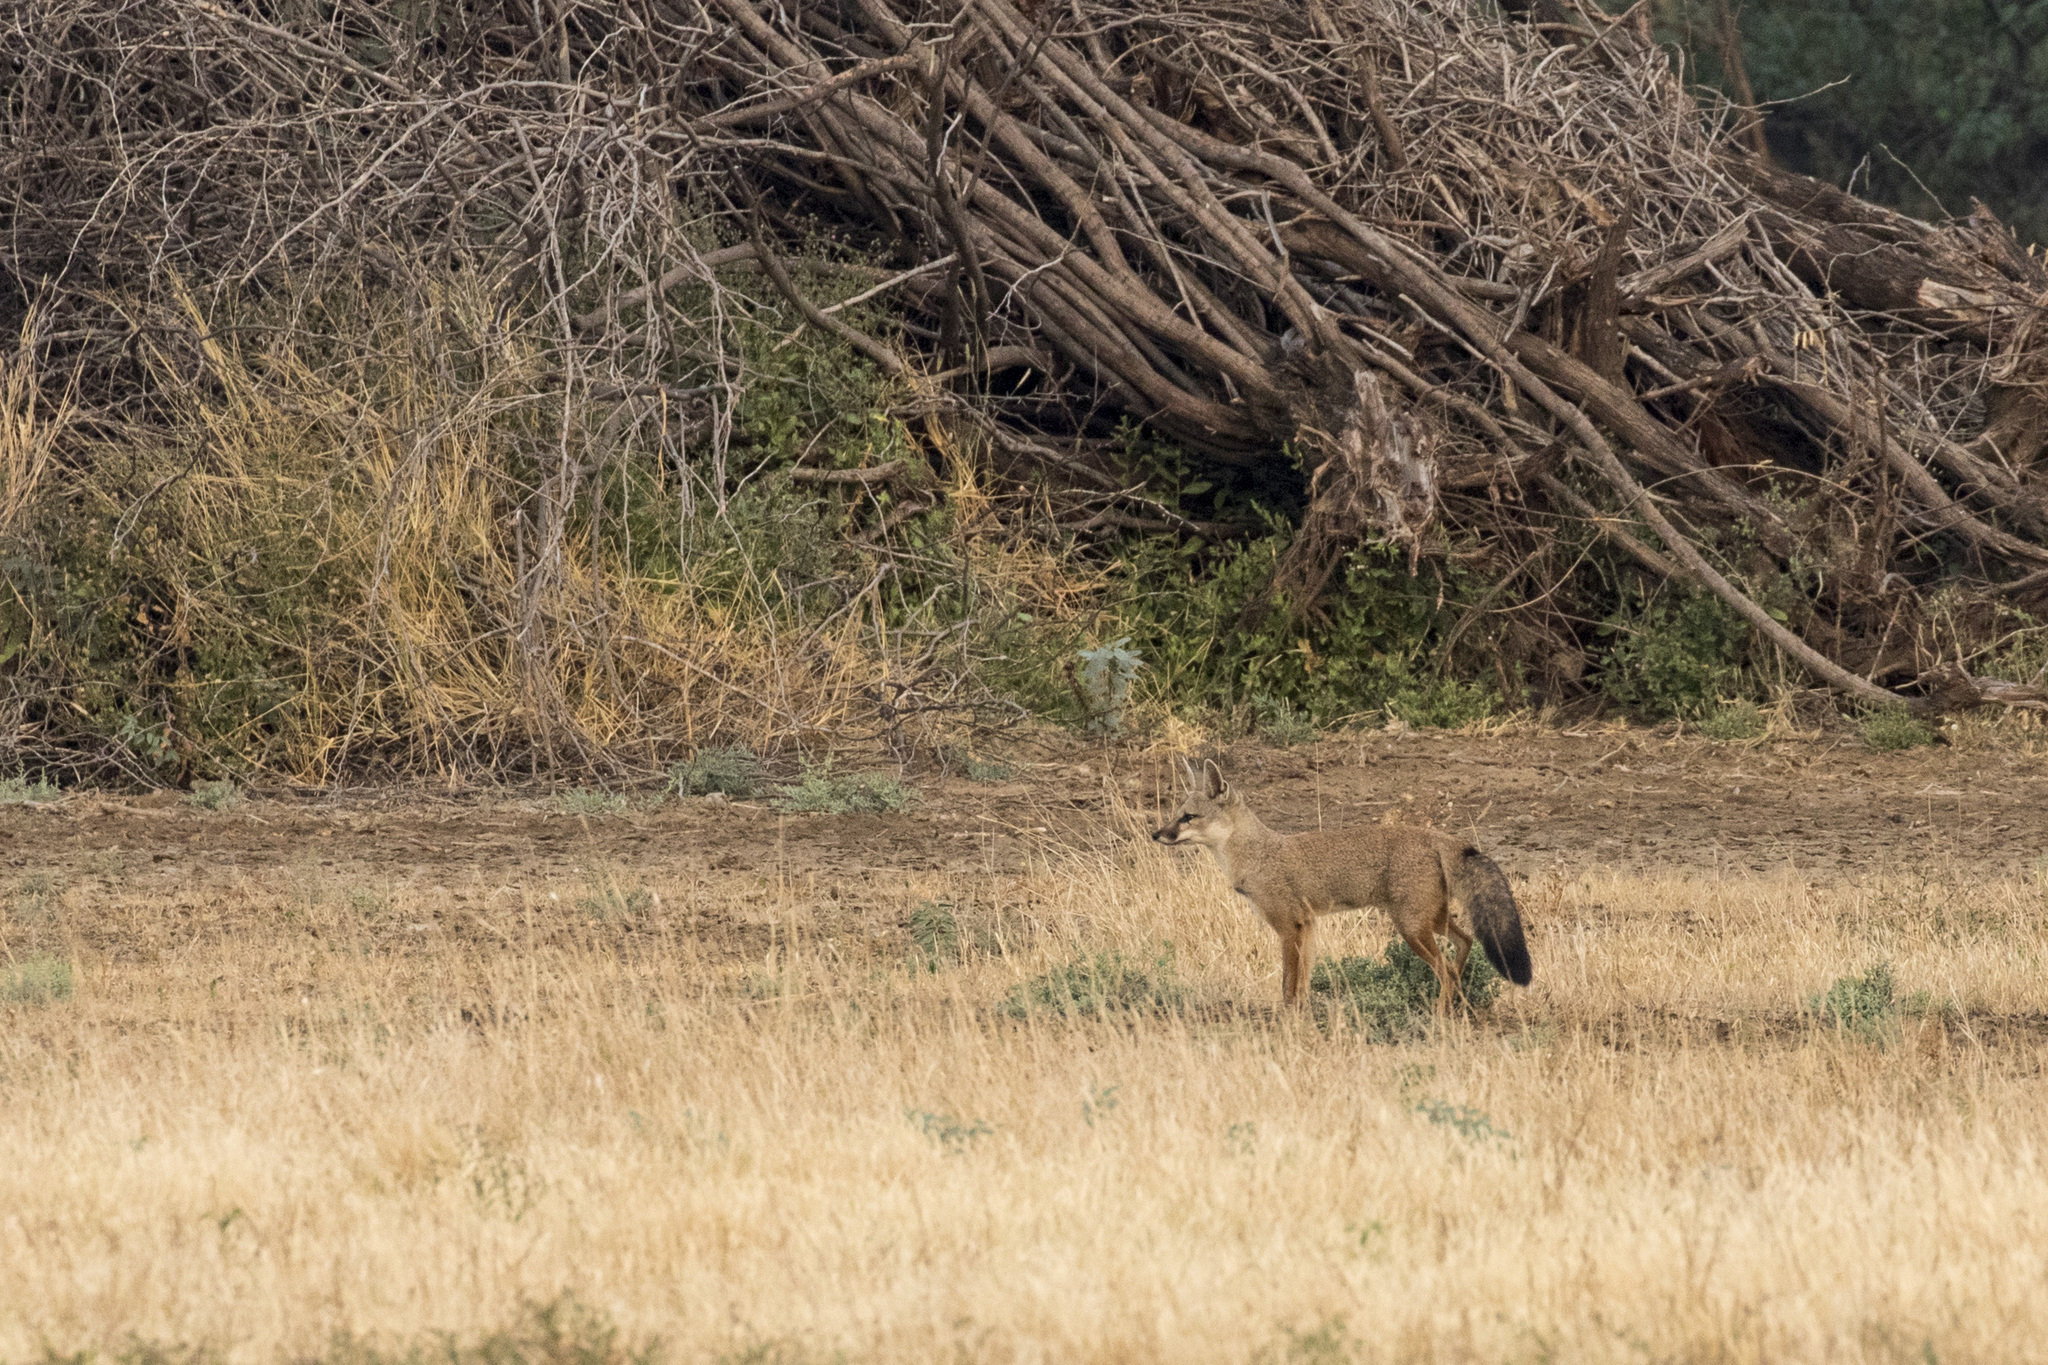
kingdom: Animalia
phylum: Chordata
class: Mammalia
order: Carnivora
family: Canidae
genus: Vulpes
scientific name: Vulpes bengalensis
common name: Bengal fox
